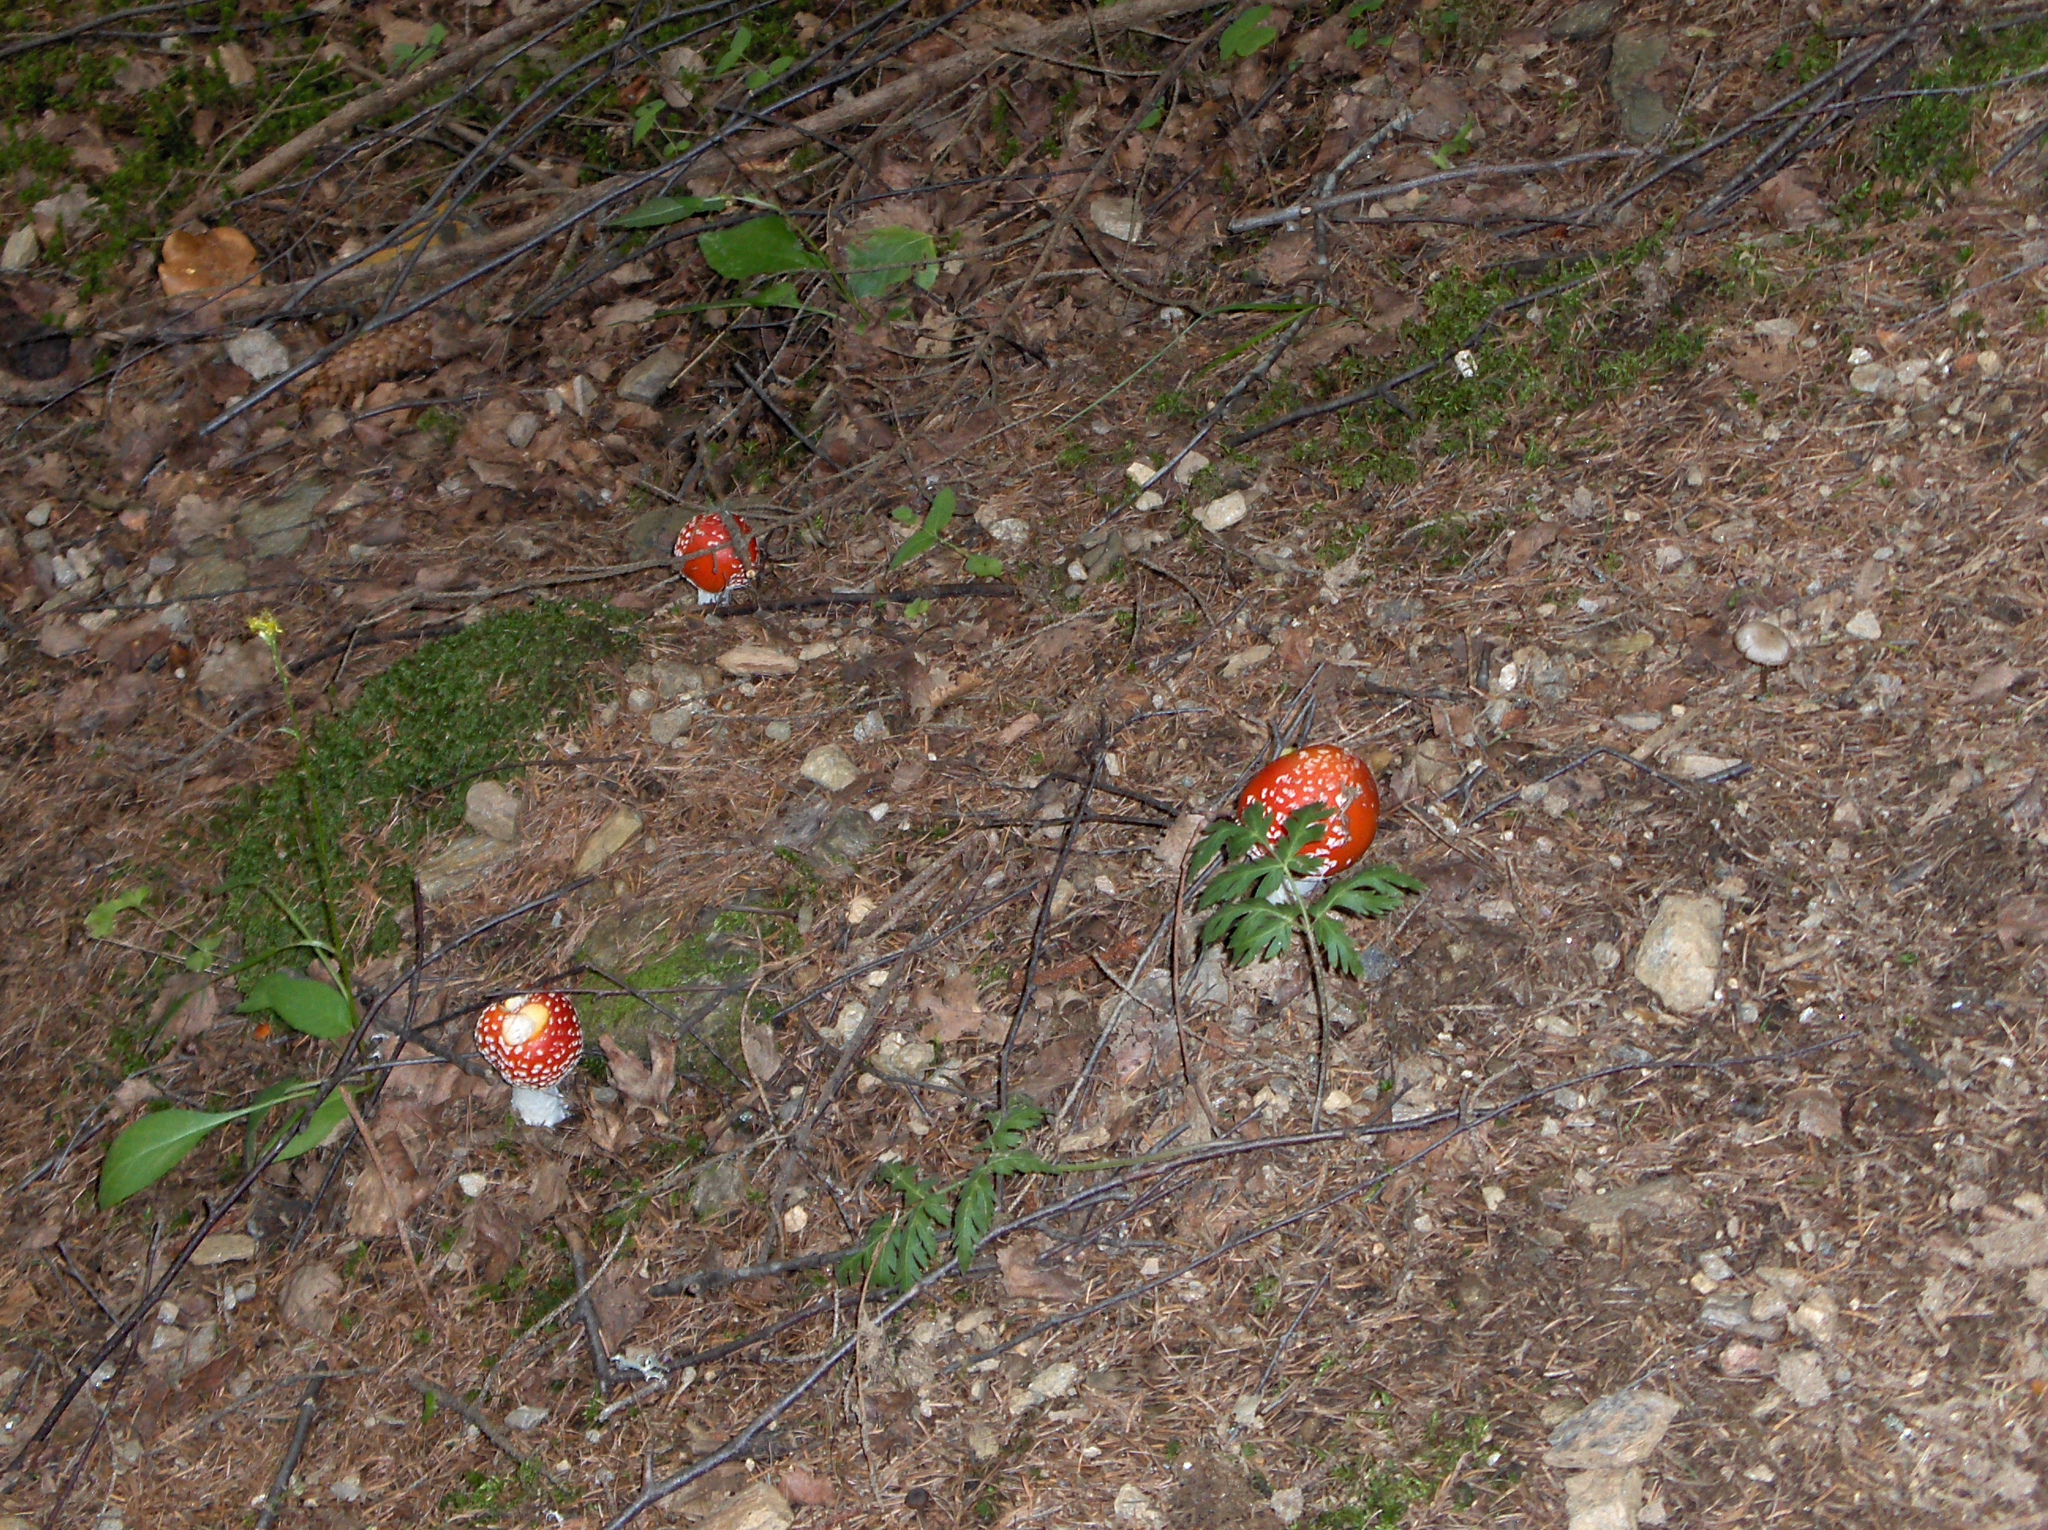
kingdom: Fungi
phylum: Basidiomycota
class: Agaricomycetes
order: Agaricales
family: Amanitaceae
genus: Amanita
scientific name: Amanita muscaria
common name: Fly agaric
